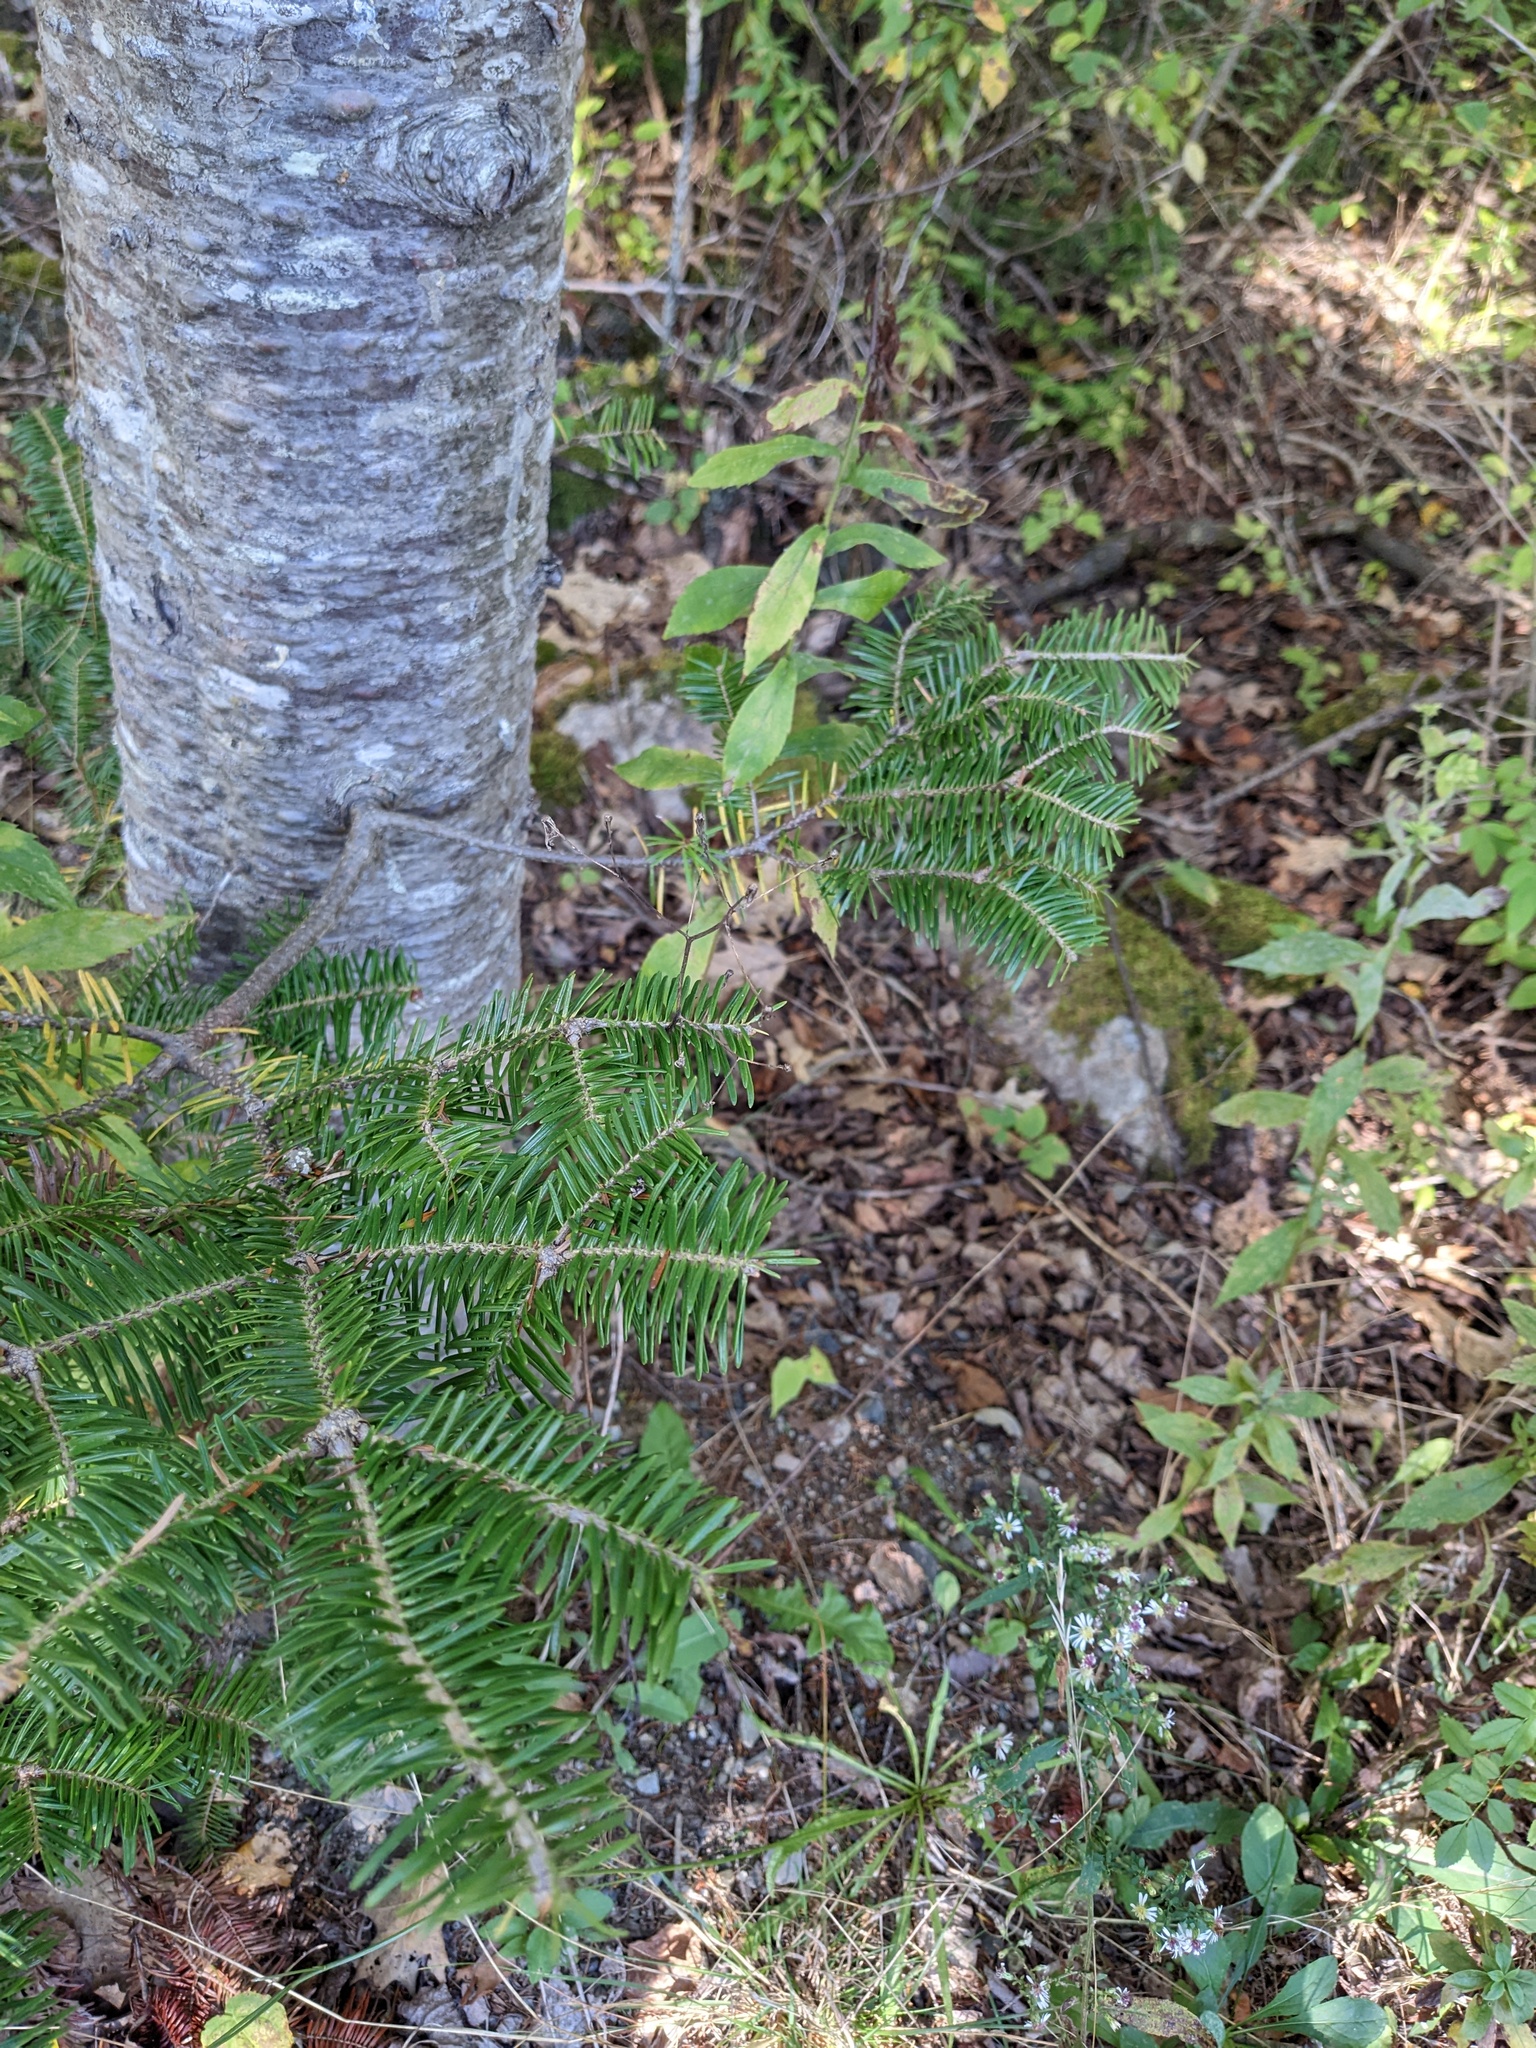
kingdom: Plantae
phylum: Tracheophyta
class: Pinopsida
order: Pinales
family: Pinaceae
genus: Abies
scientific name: Abies balsamea
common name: Balsam fir
